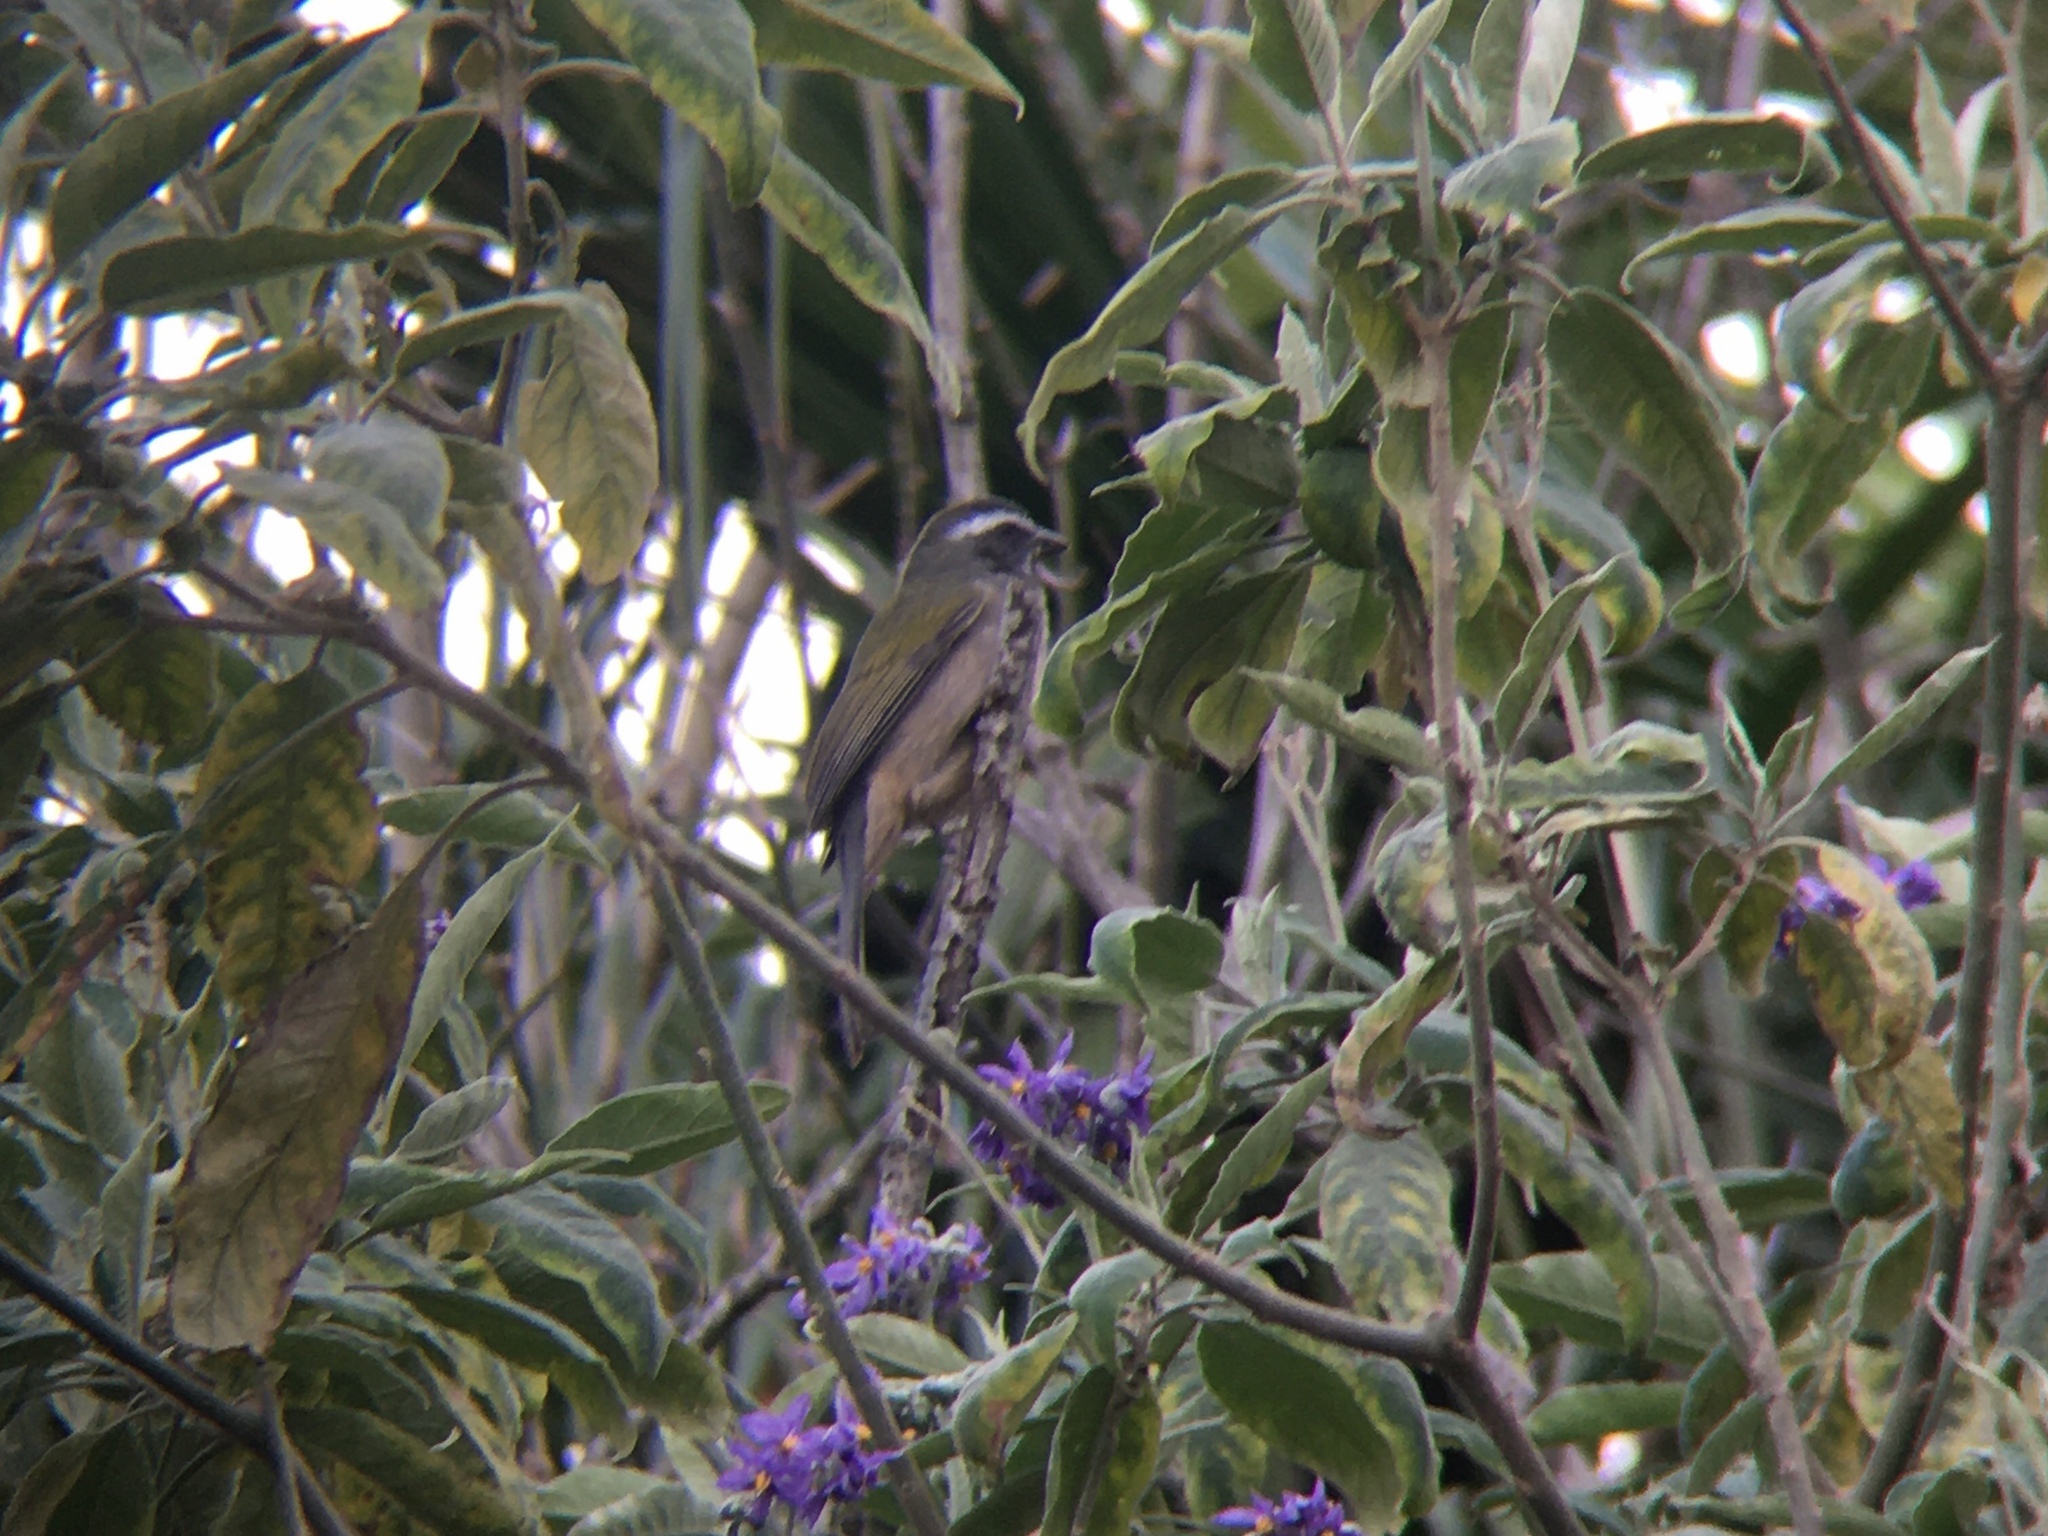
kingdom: Animalia
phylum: Chordata
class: Aves
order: Passeriformes
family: Thraupidae
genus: Saltator
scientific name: Saltator similis
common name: Green-winged saltator
